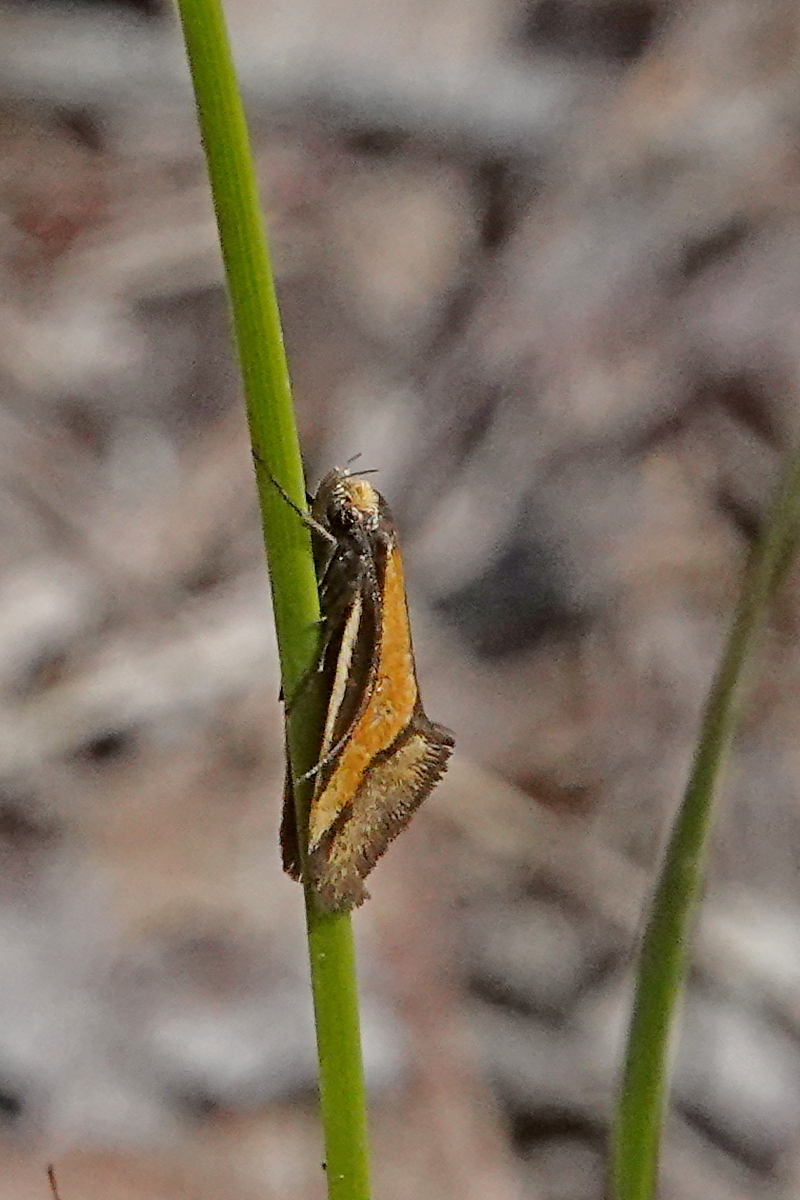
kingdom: Animalia
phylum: Arthropoda
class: Insecta
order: Lepidoptera
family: Oecophoridae
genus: Philobota
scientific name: Philobota arabella
